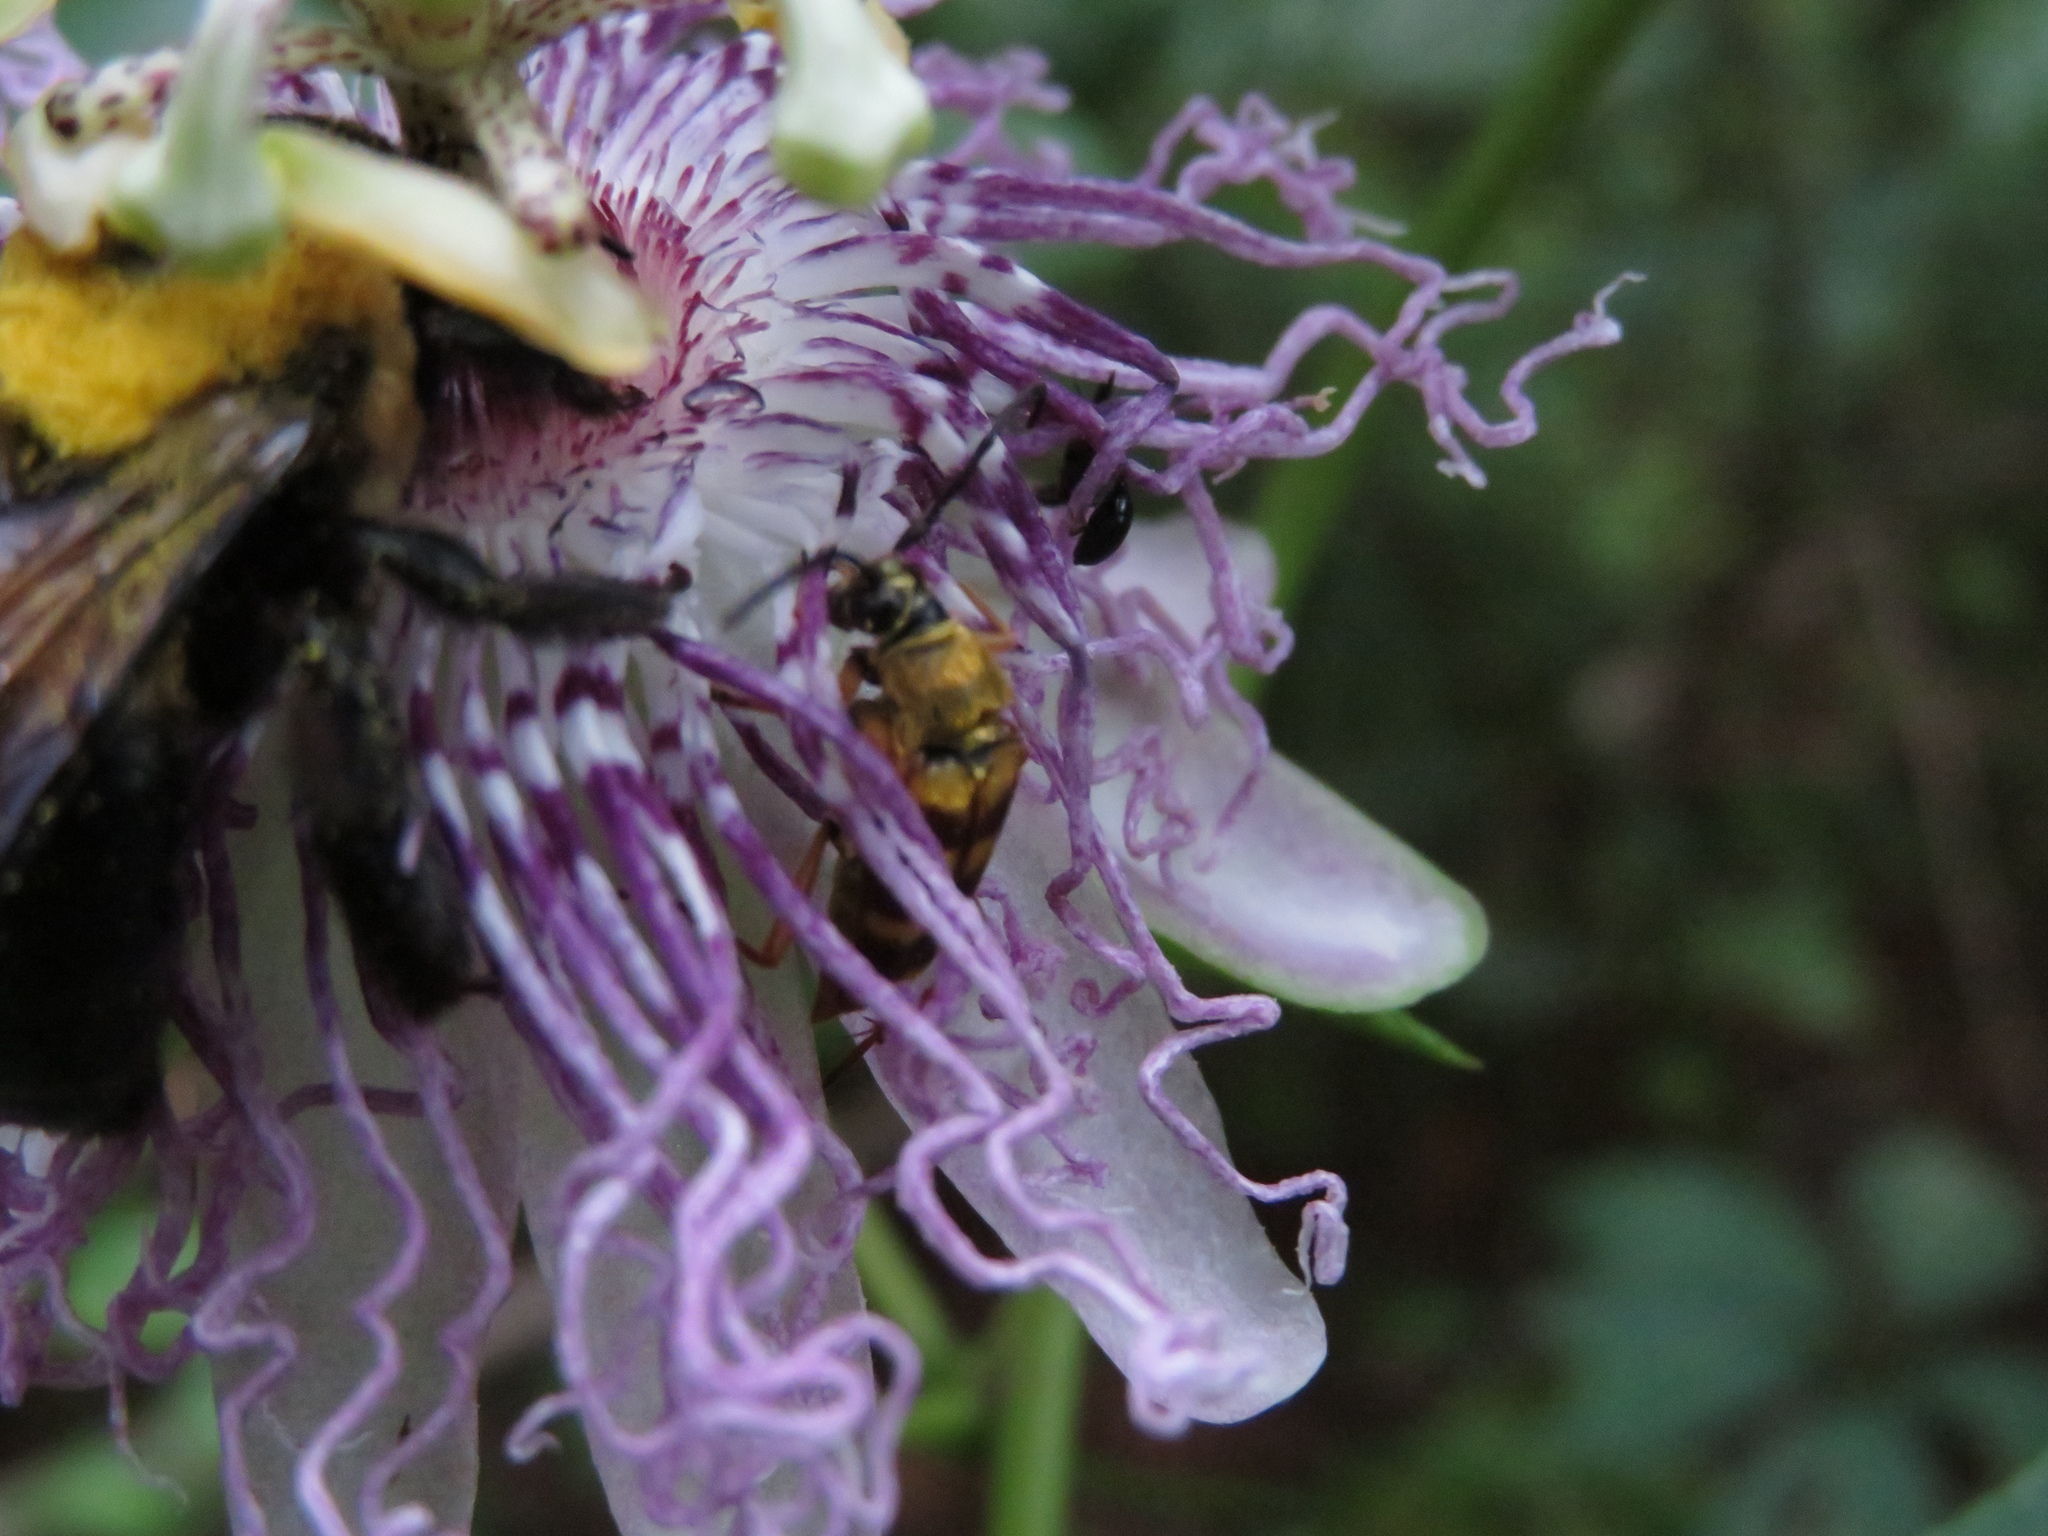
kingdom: Animalia
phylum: Arthropoda
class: Insecta
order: Coleoptera
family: Cerambycidae
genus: Typocerus
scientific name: Typocerus velutinus
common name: Banded longhorn beetle
